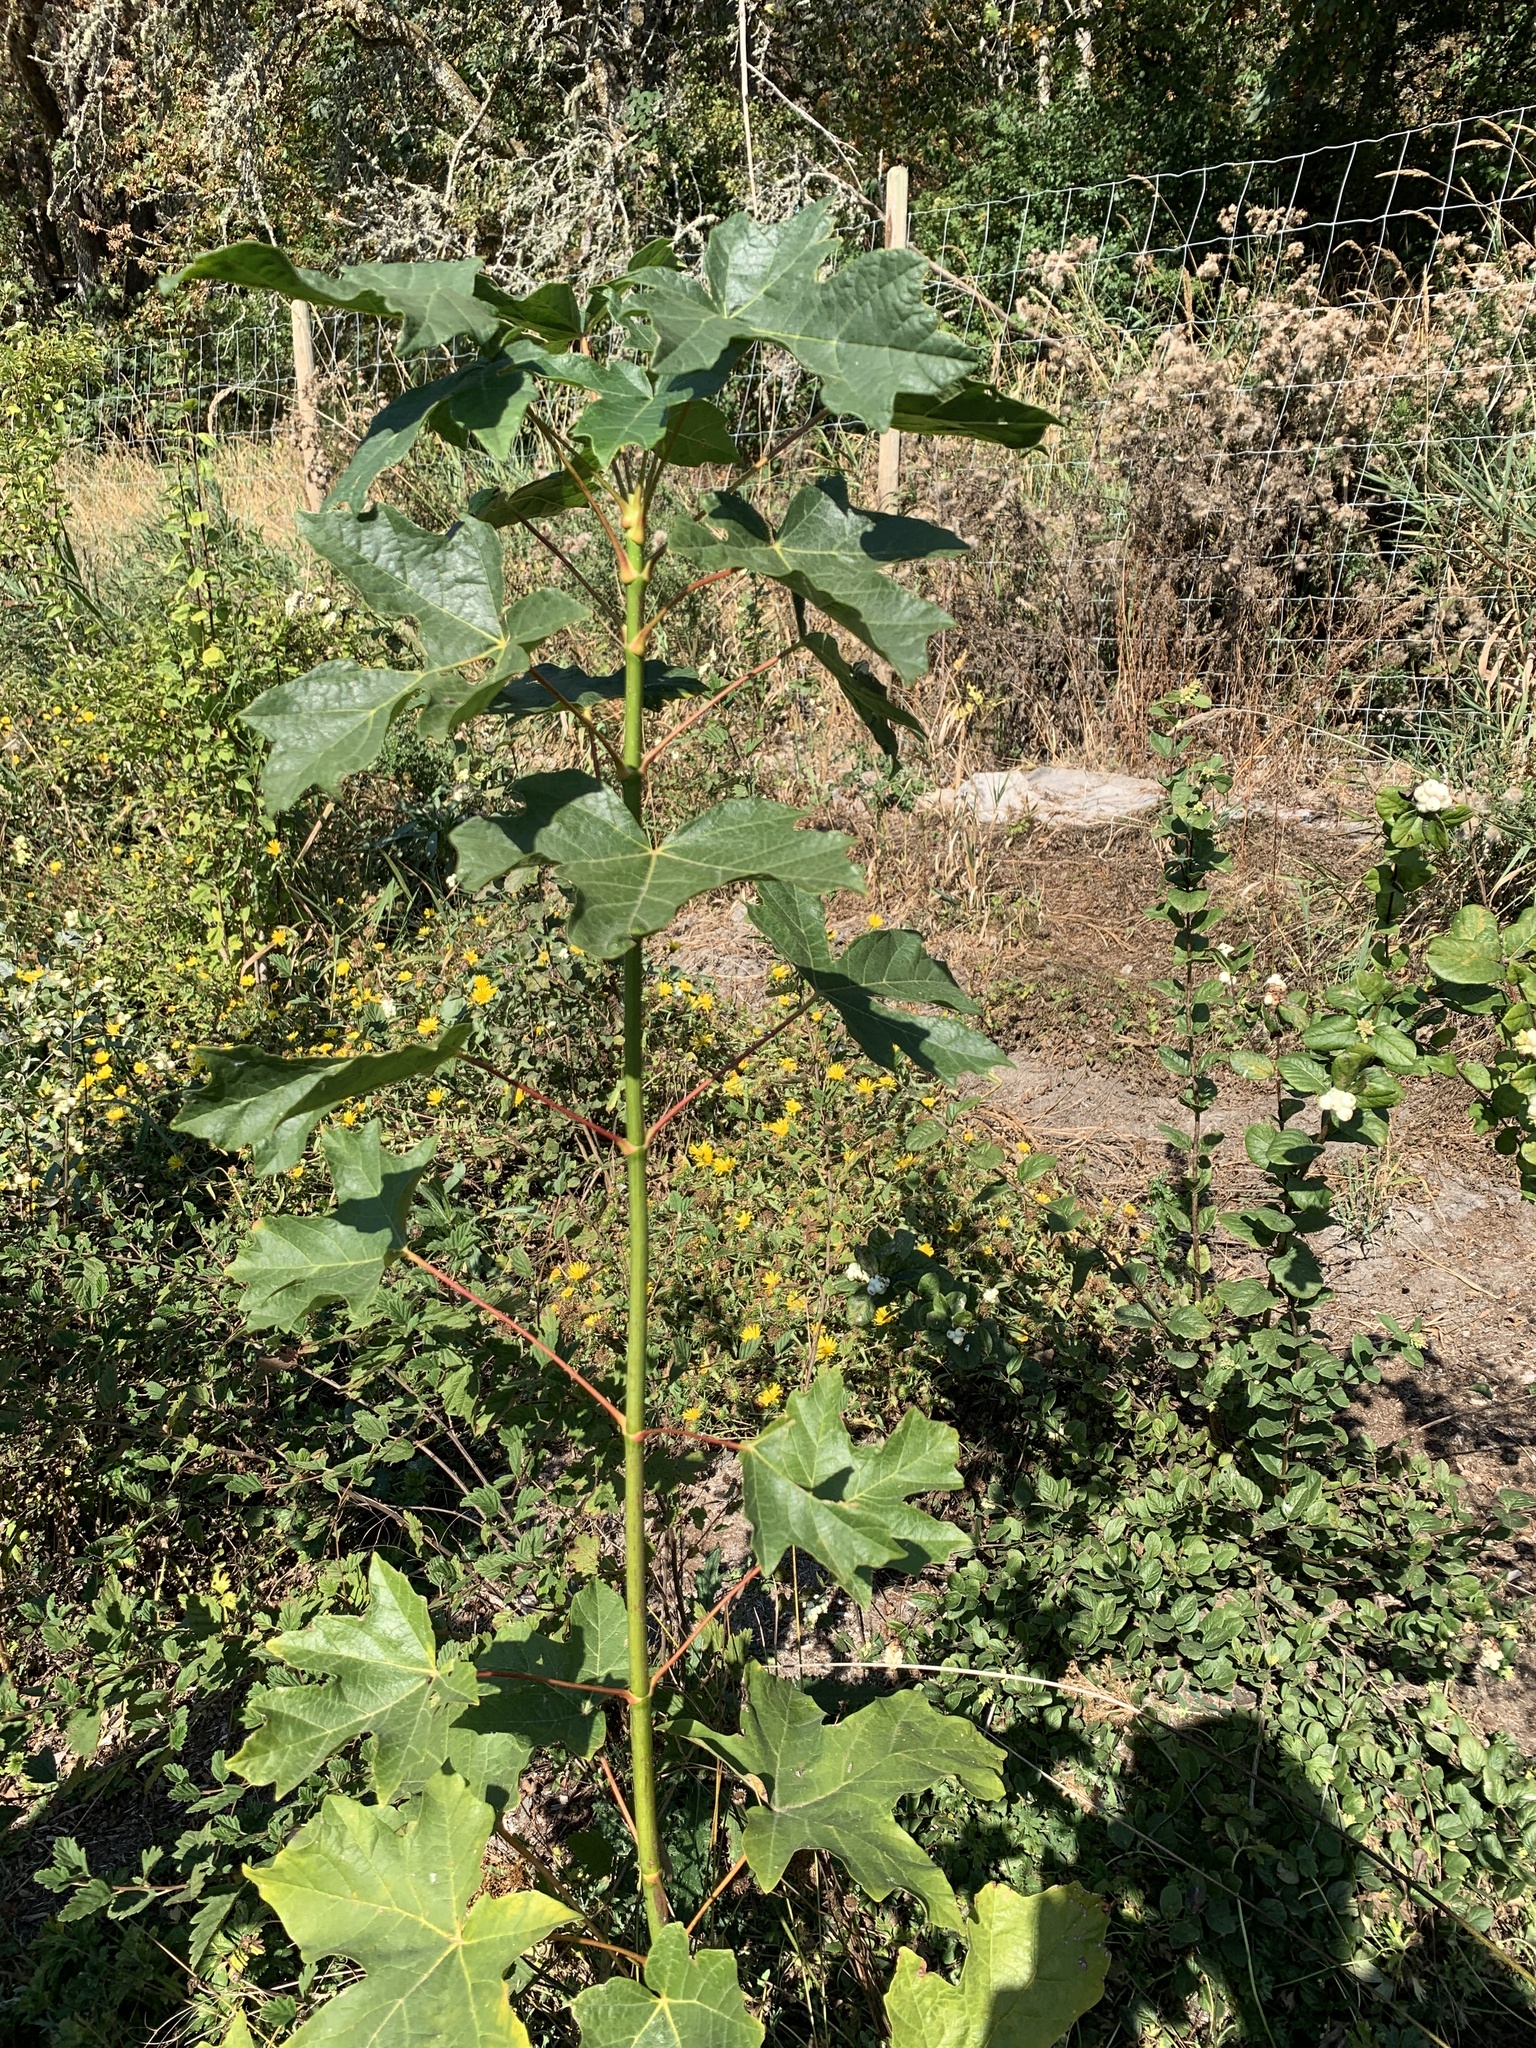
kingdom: Plantae
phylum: Tracheophyta
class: Magnoliopsida
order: Sapindales
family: Sapindaceae
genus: Acer
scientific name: Acer macrophyllum
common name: Oregon maple
